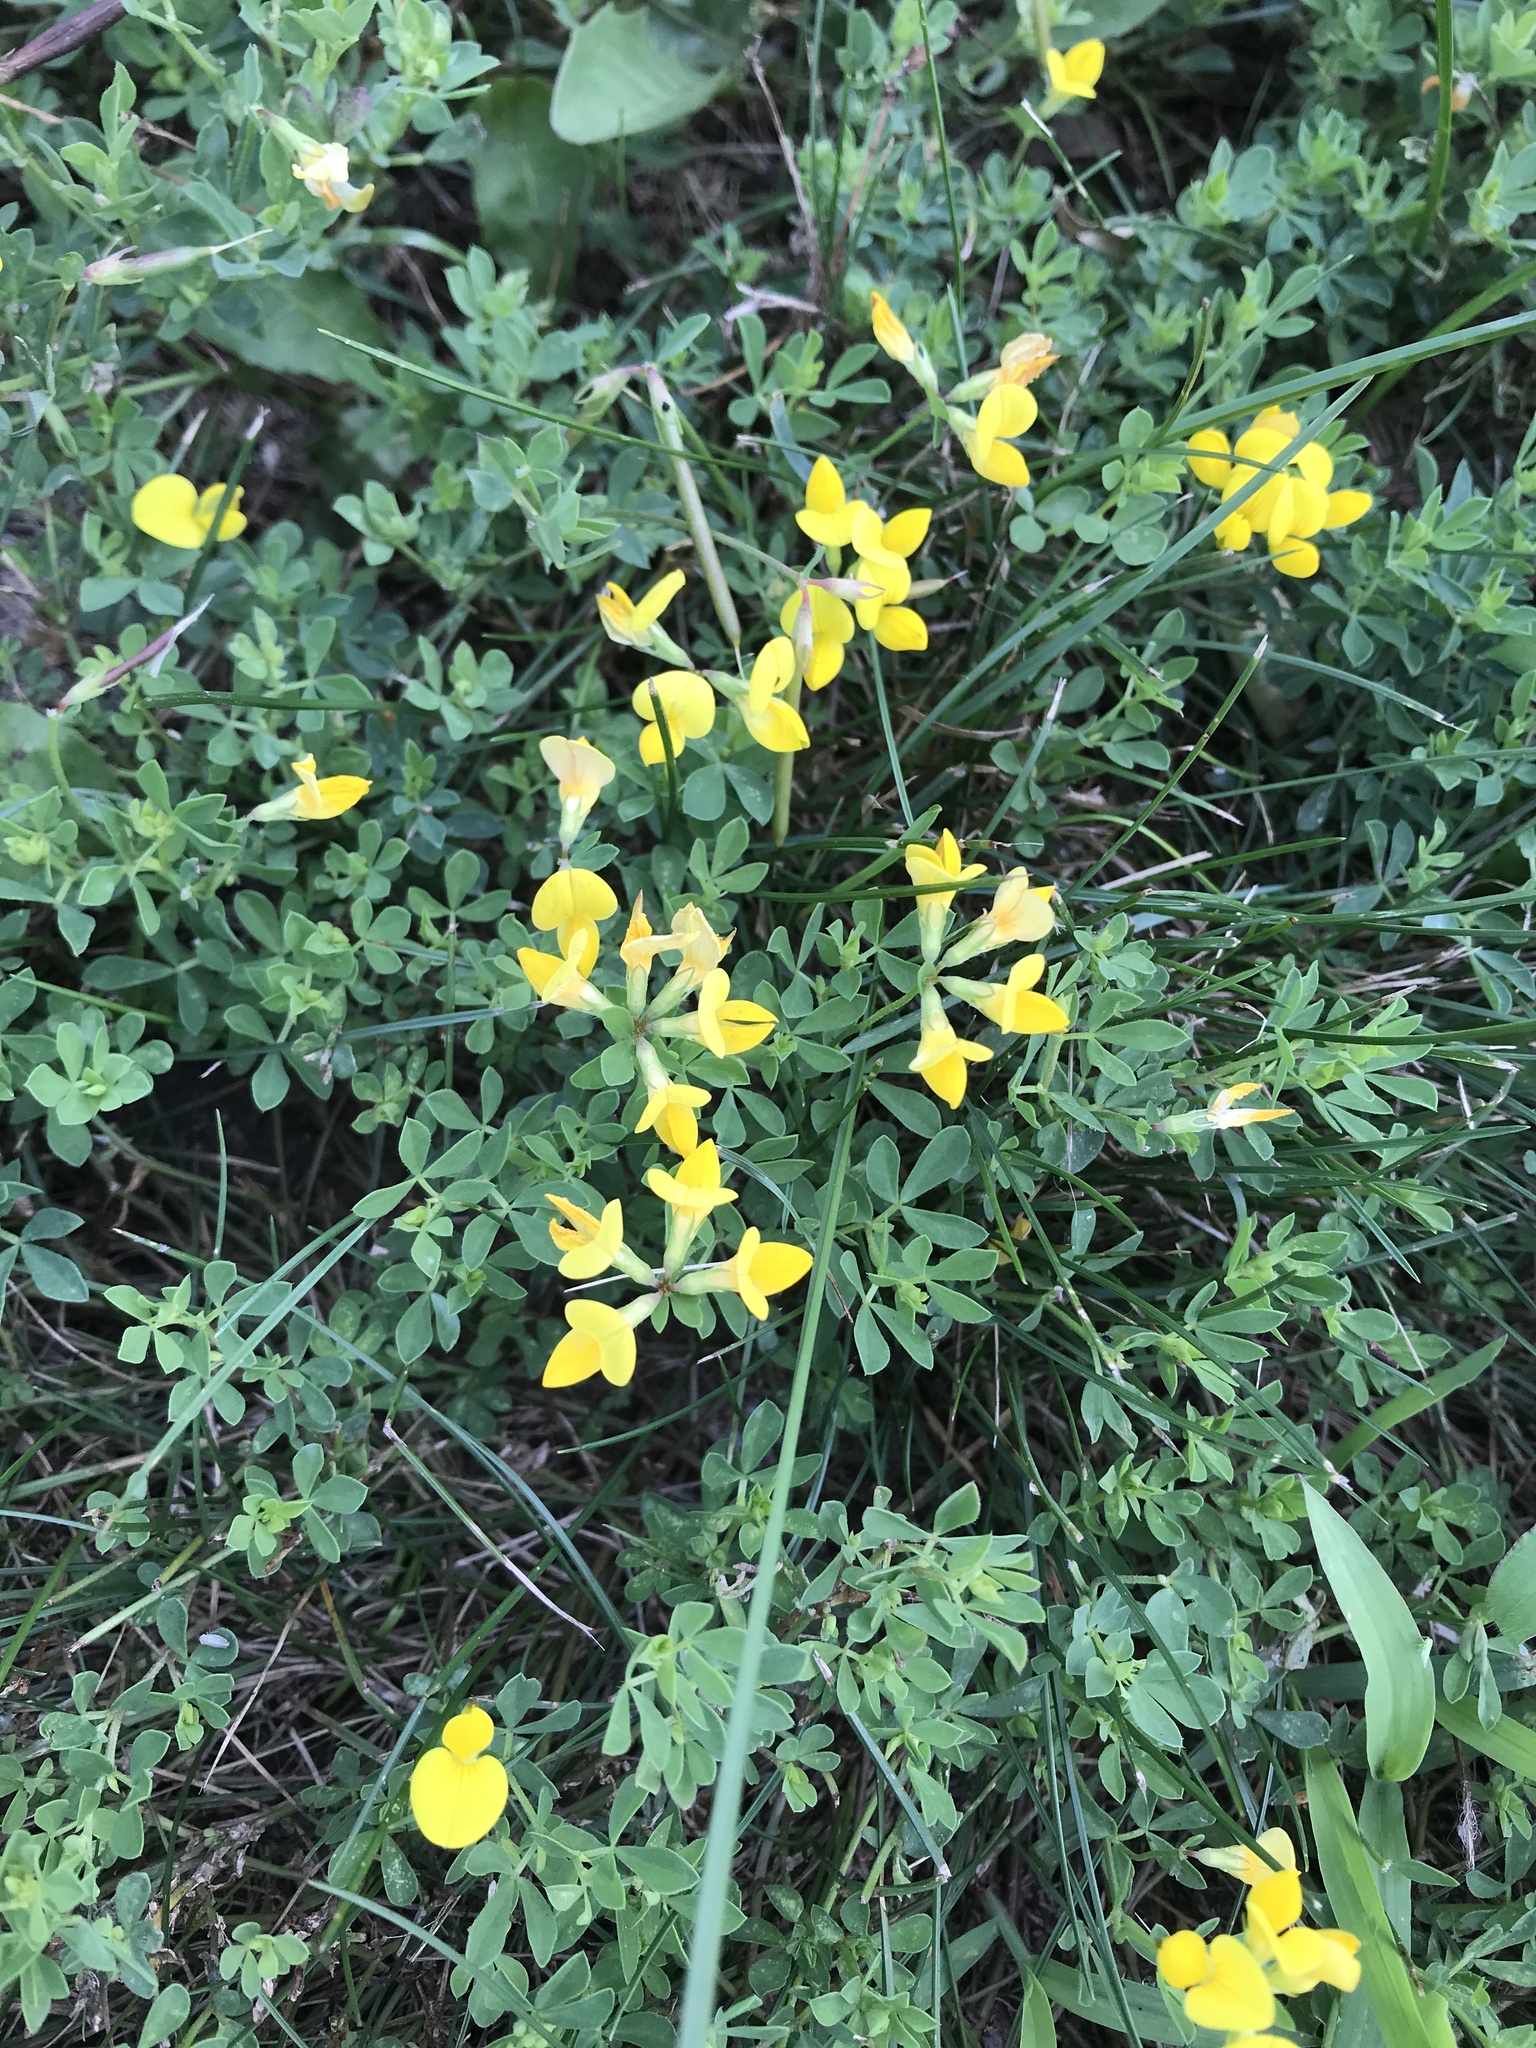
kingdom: Plantae
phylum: Tracheophyta
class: Magnoliopsida
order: Fabales
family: Fabaceae
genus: Lotus
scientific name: Lotus corniculatus
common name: Common bird's-foot-trefoil
